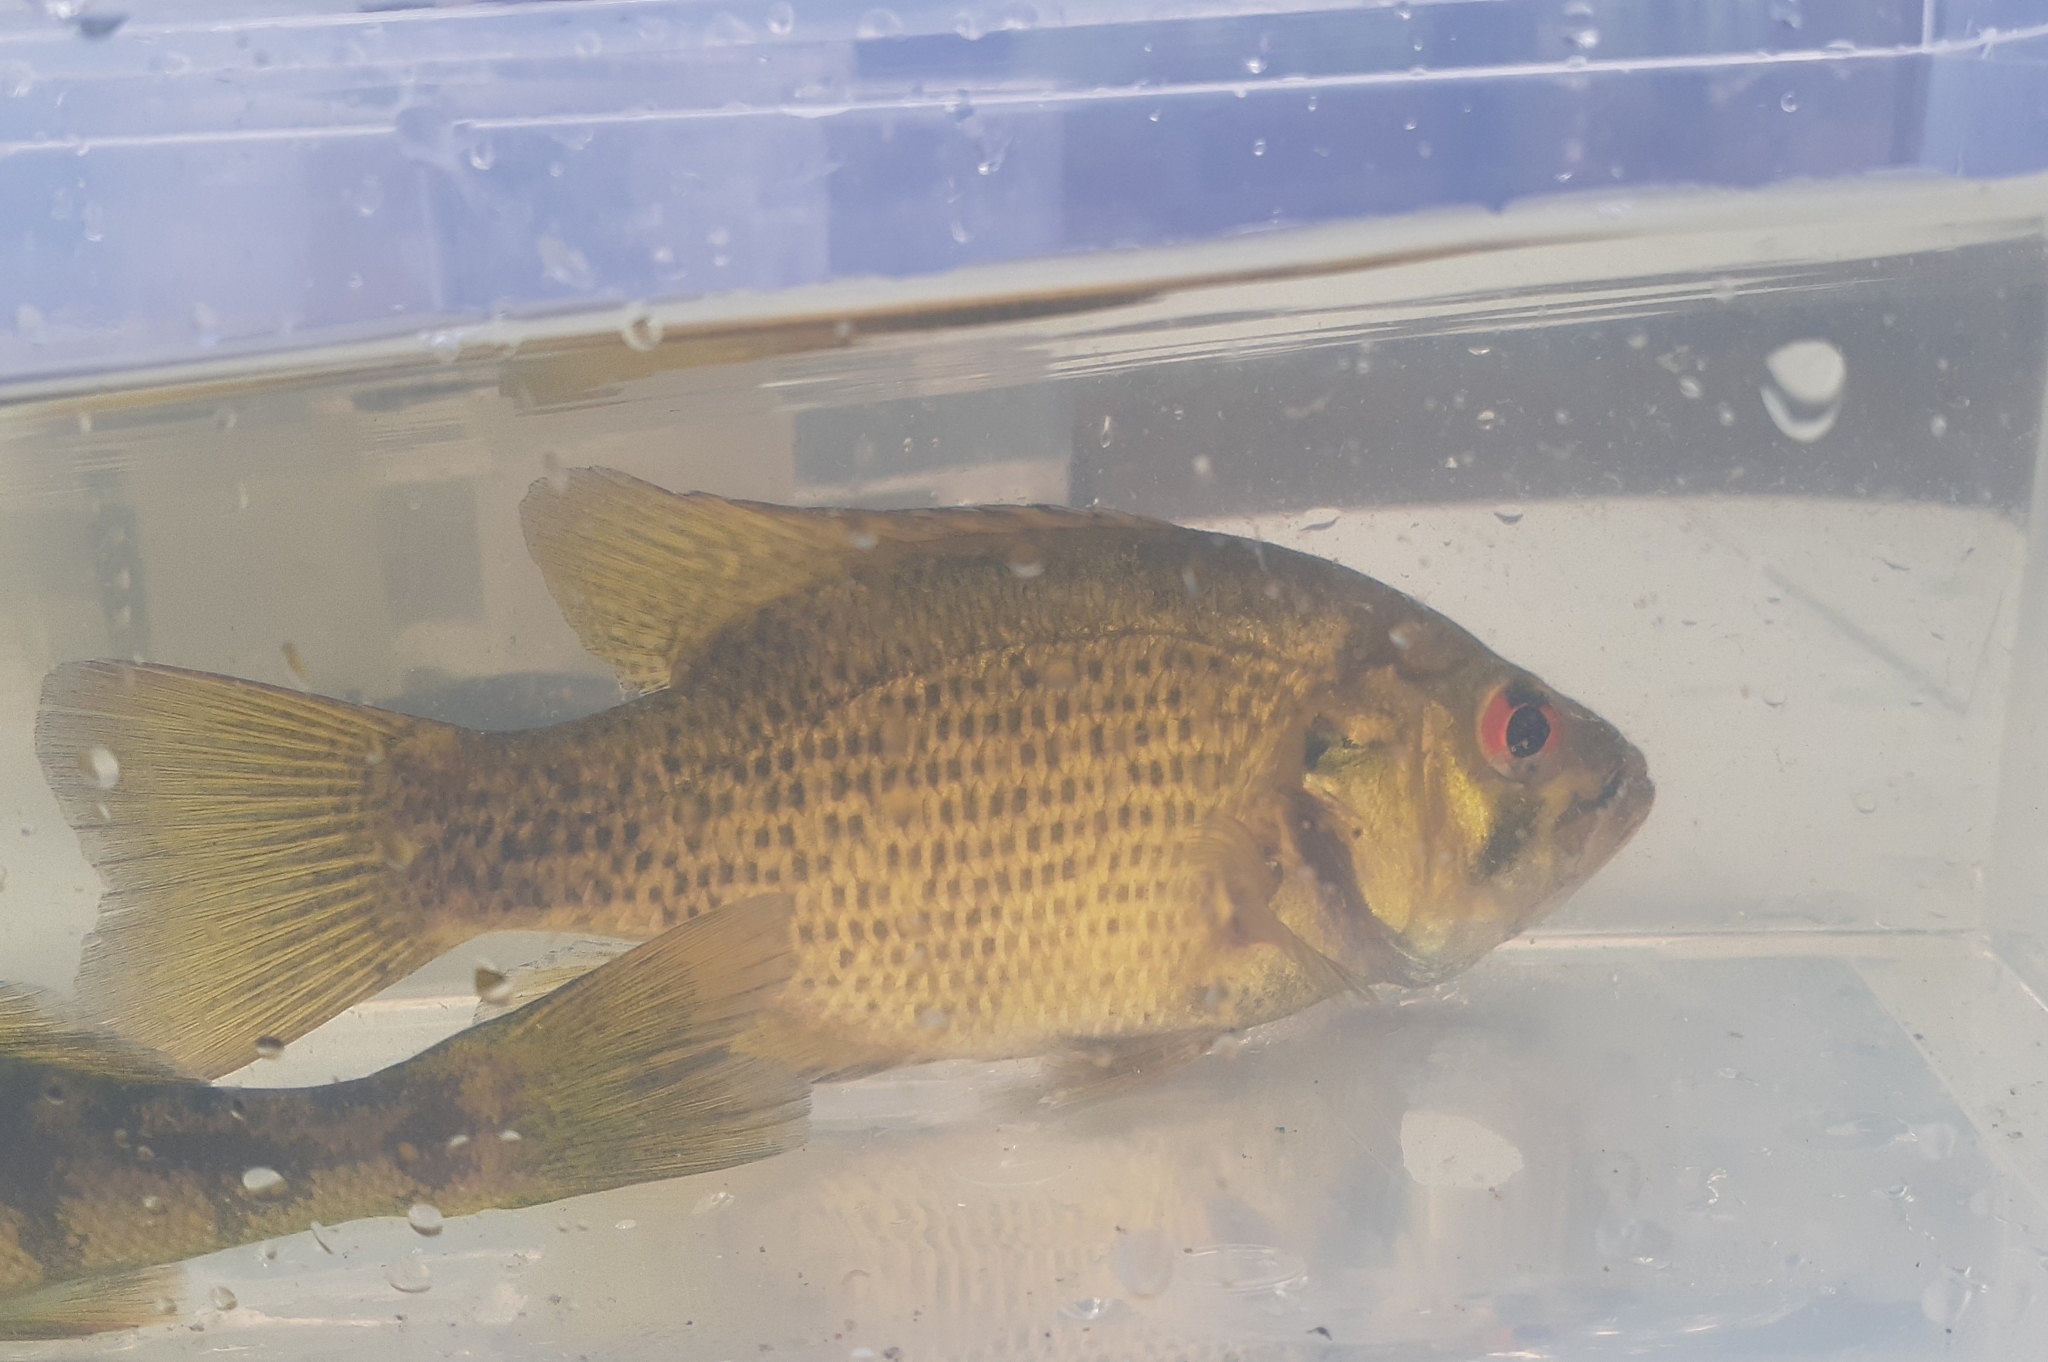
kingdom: Animalia
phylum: Chordata
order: Perciformes
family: Centrarchidae
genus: Ambloplites
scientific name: Ambloplites rupestris
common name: Rock bass
